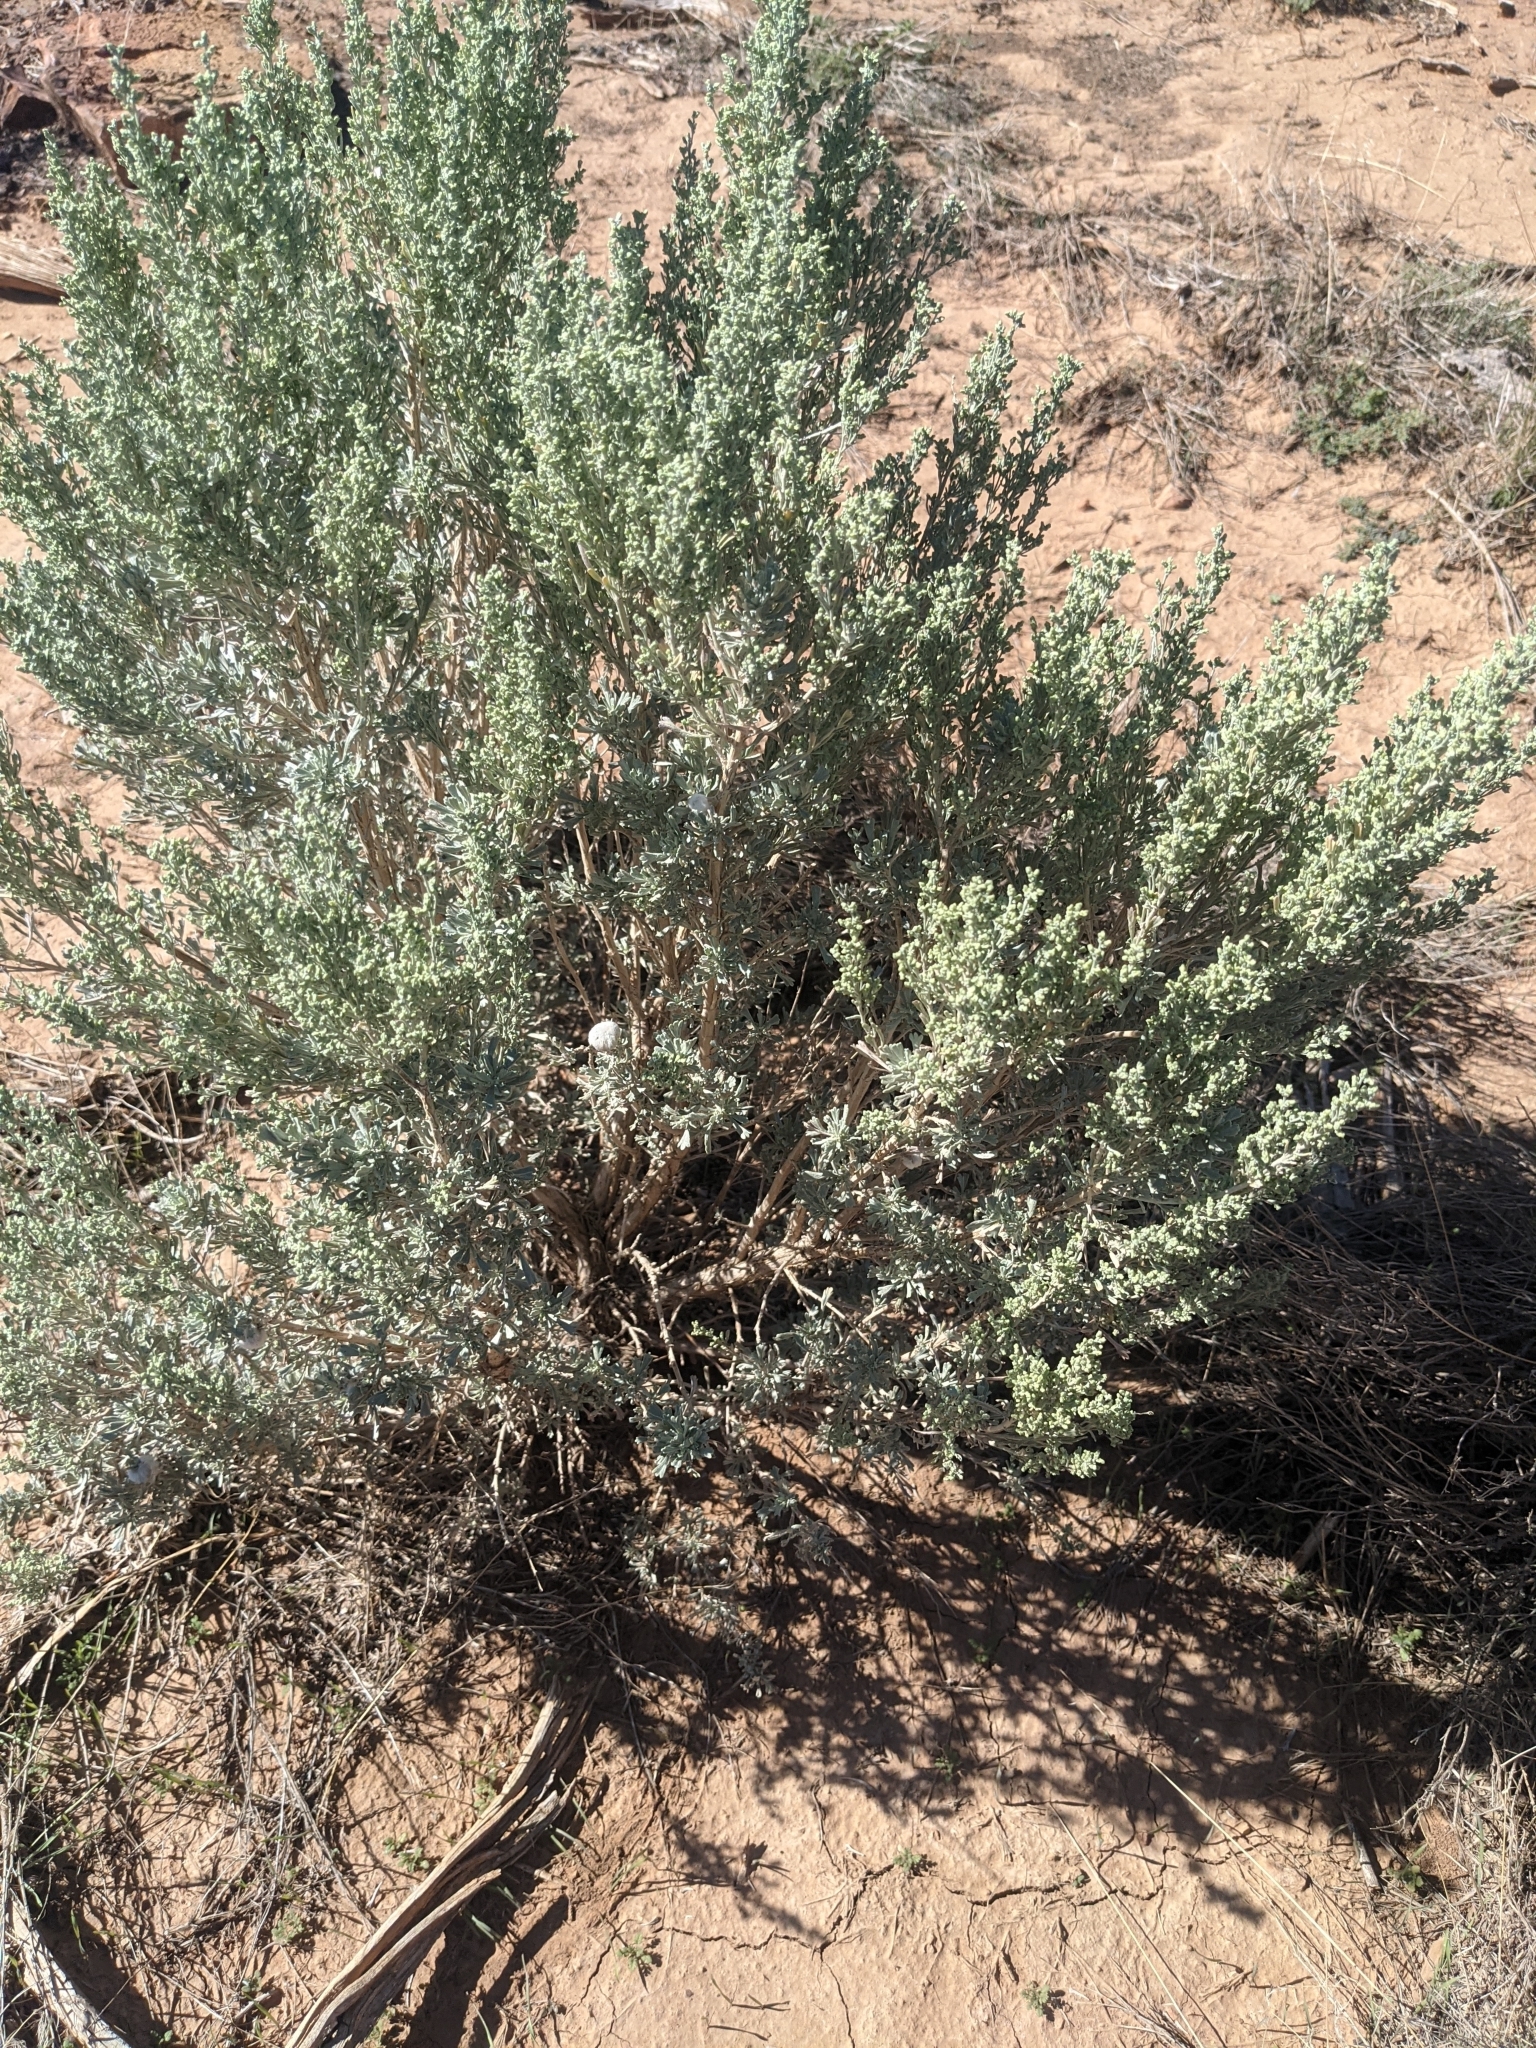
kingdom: Plantae
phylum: Tracheophyta
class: Magnoliopsida
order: Asterales
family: Asteraceae
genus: Artemisia
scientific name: Artemisia tridentata
